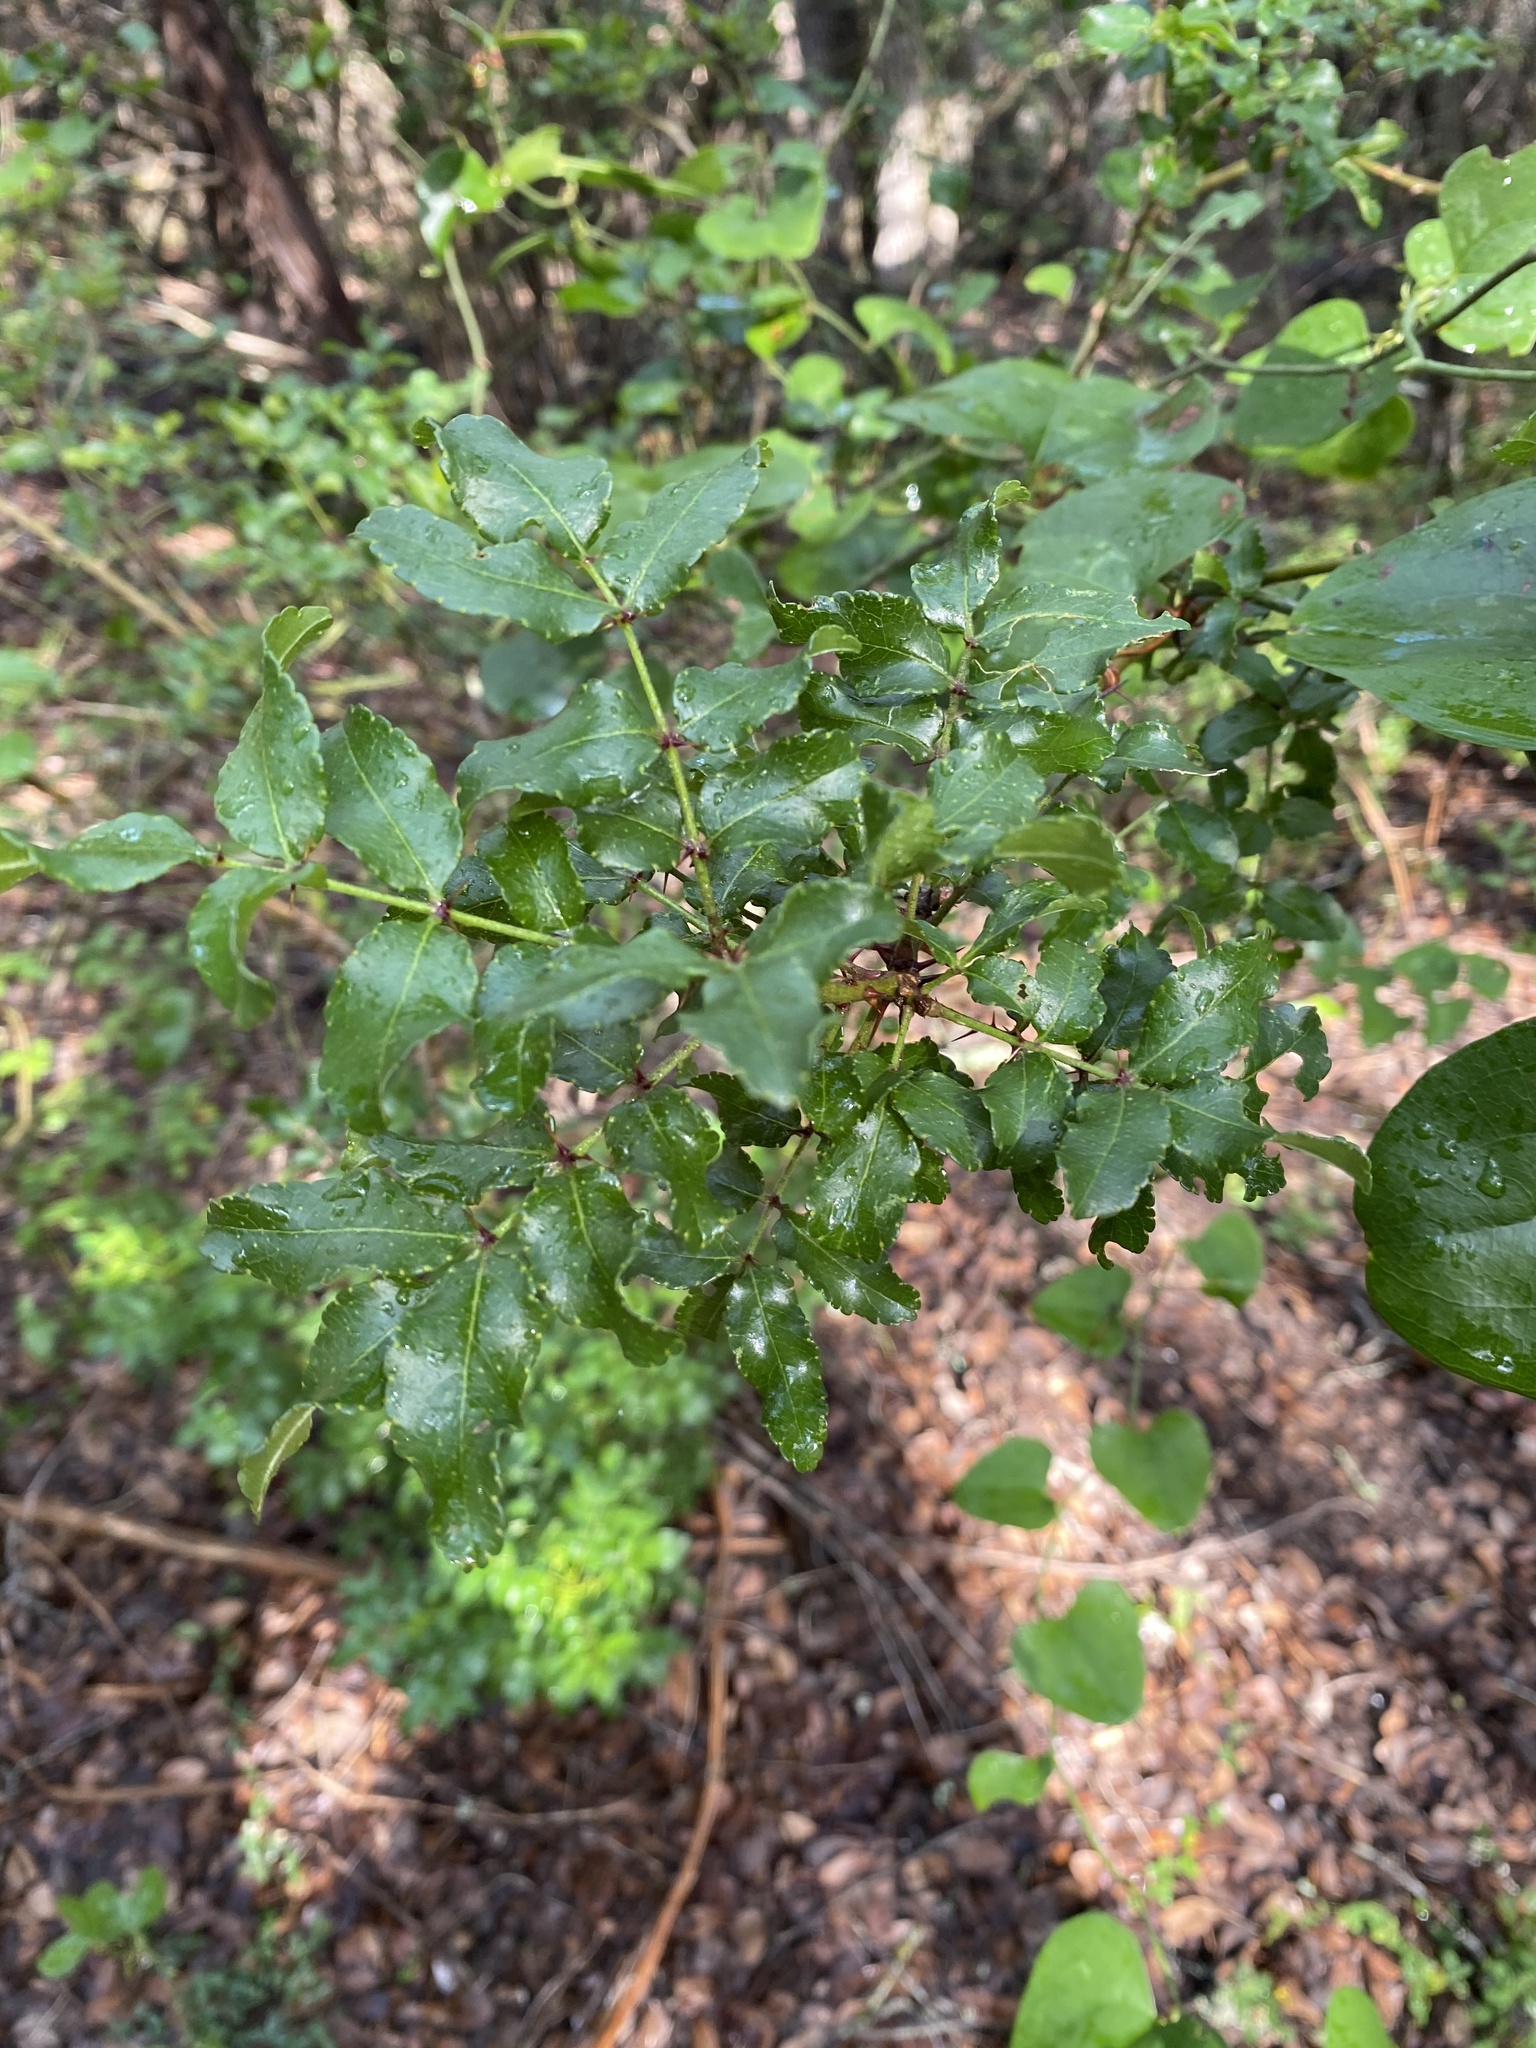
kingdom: Plantae
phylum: Tracheophyta
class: Magnoliopsida
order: Sapindales
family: Rutaceae
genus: Zanthoxylum
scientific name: Zanthoxylum clava-herculis
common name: Hercules'-club
